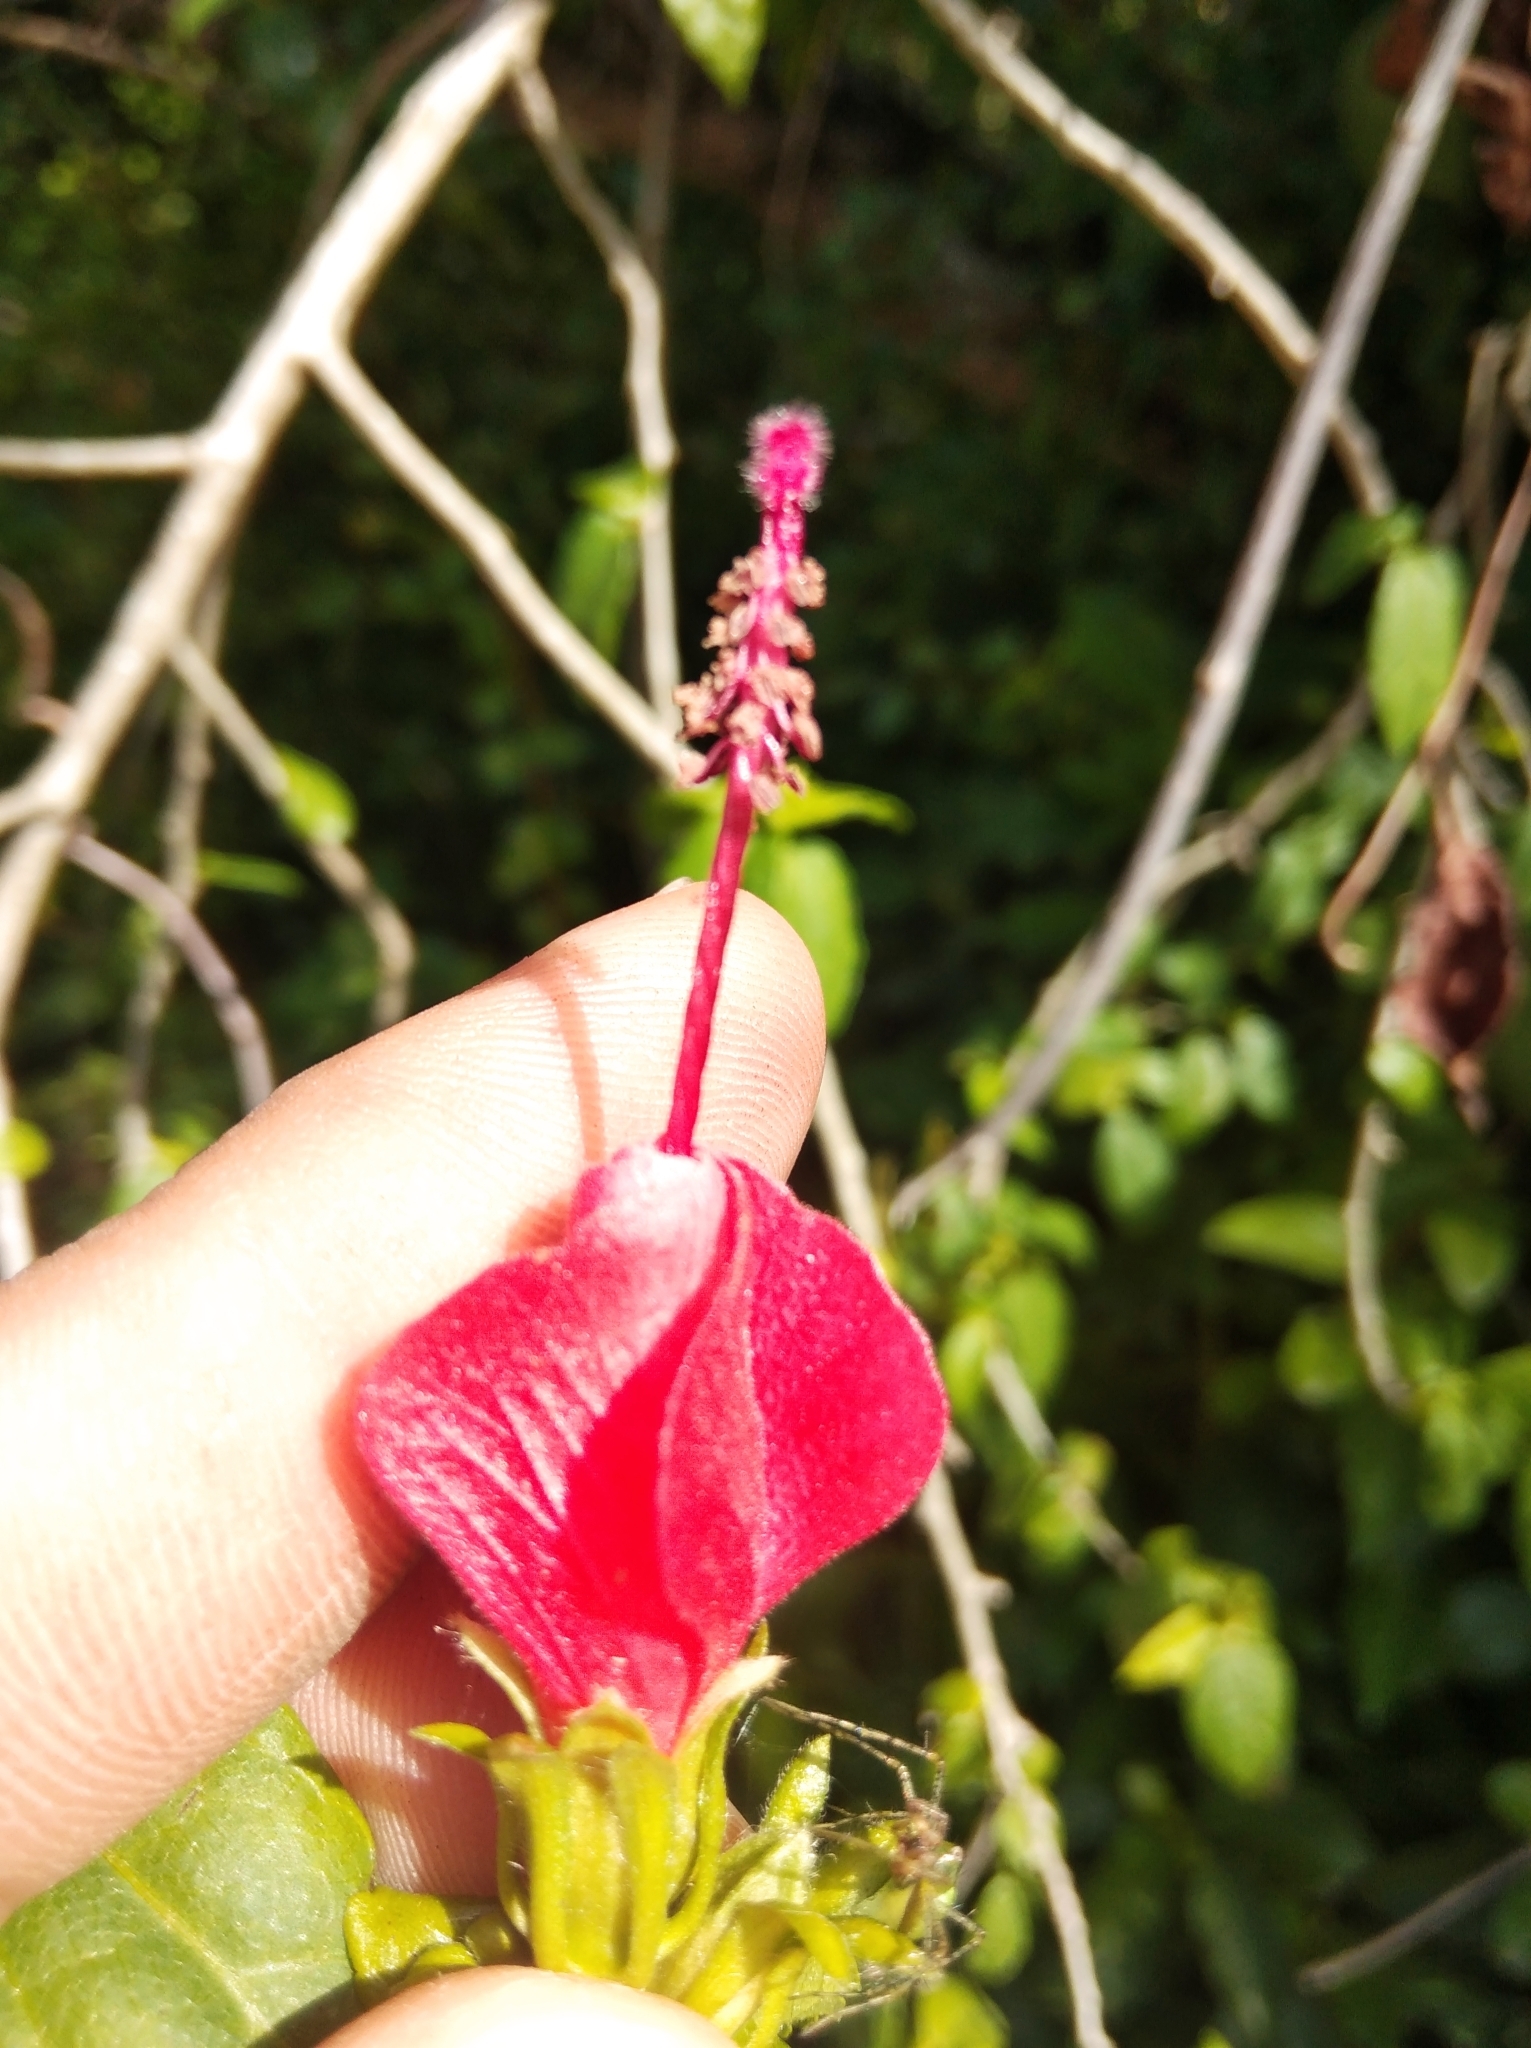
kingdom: Plantae
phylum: Tracheophyta
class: Magnoliopsida
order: Malvales
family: Malvaceae
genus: Malvaviscus
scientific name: Malvaviscus arboreus
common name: Wax mallow
